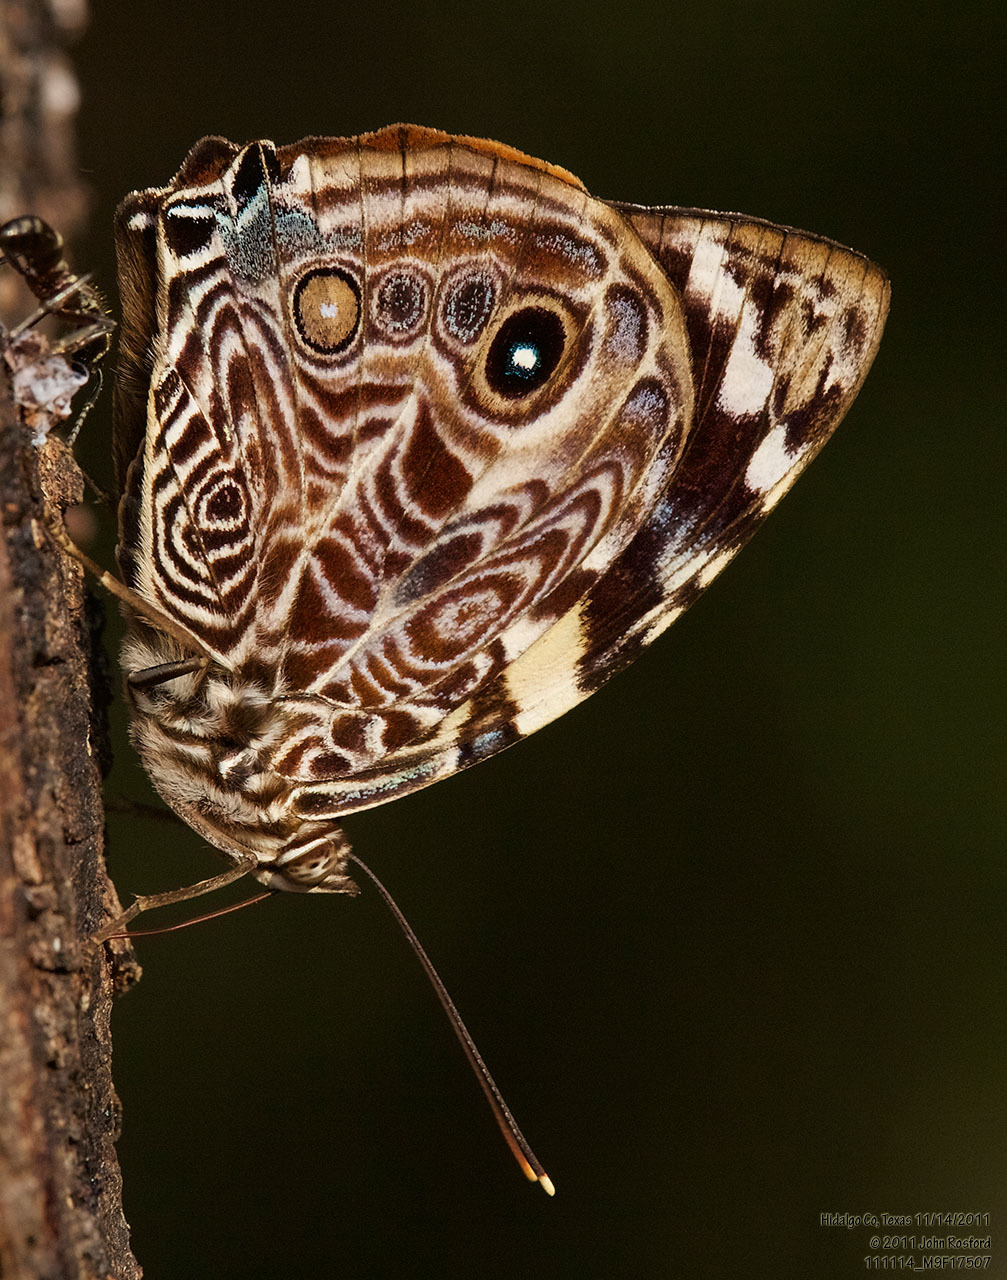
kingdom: Animalia
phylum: Arthropoda
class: Insecta
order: Lepidoptera
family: Nymphalidae
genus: Smyrna
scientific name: Smyrna blomfildia
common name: Blomfild's beauty
